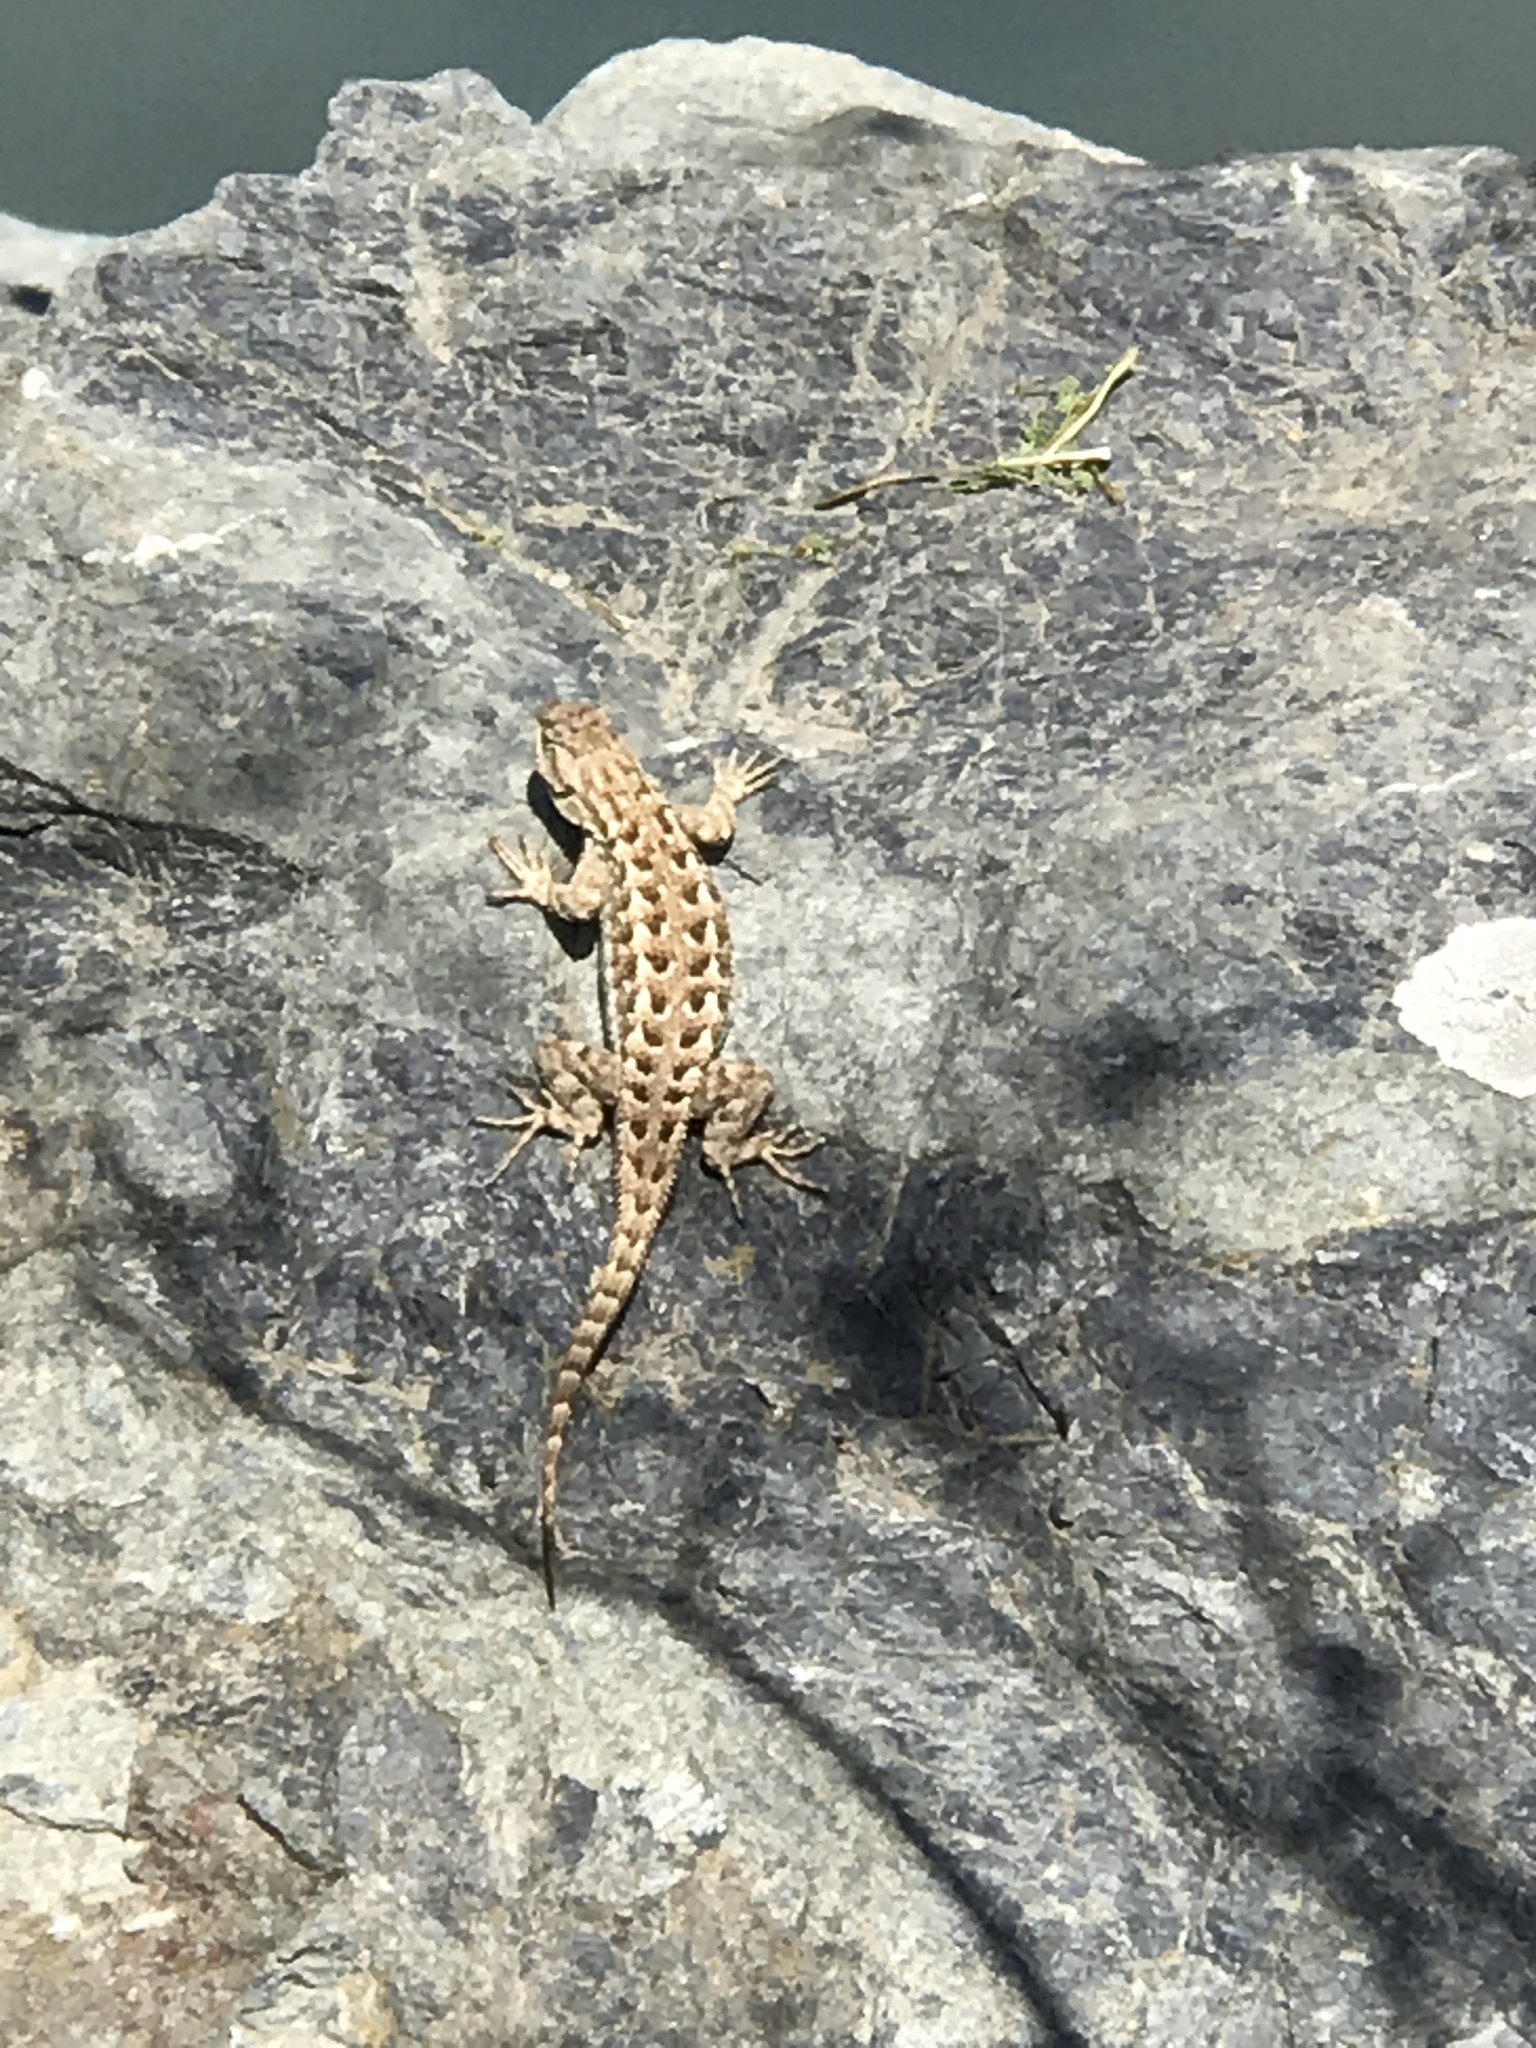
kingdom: Animalia
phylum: Chordata
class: Squamata
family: Phrynosomatidae
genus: Sceloporus
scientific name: Sceloporus occidentalis
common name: Western fence lizard
